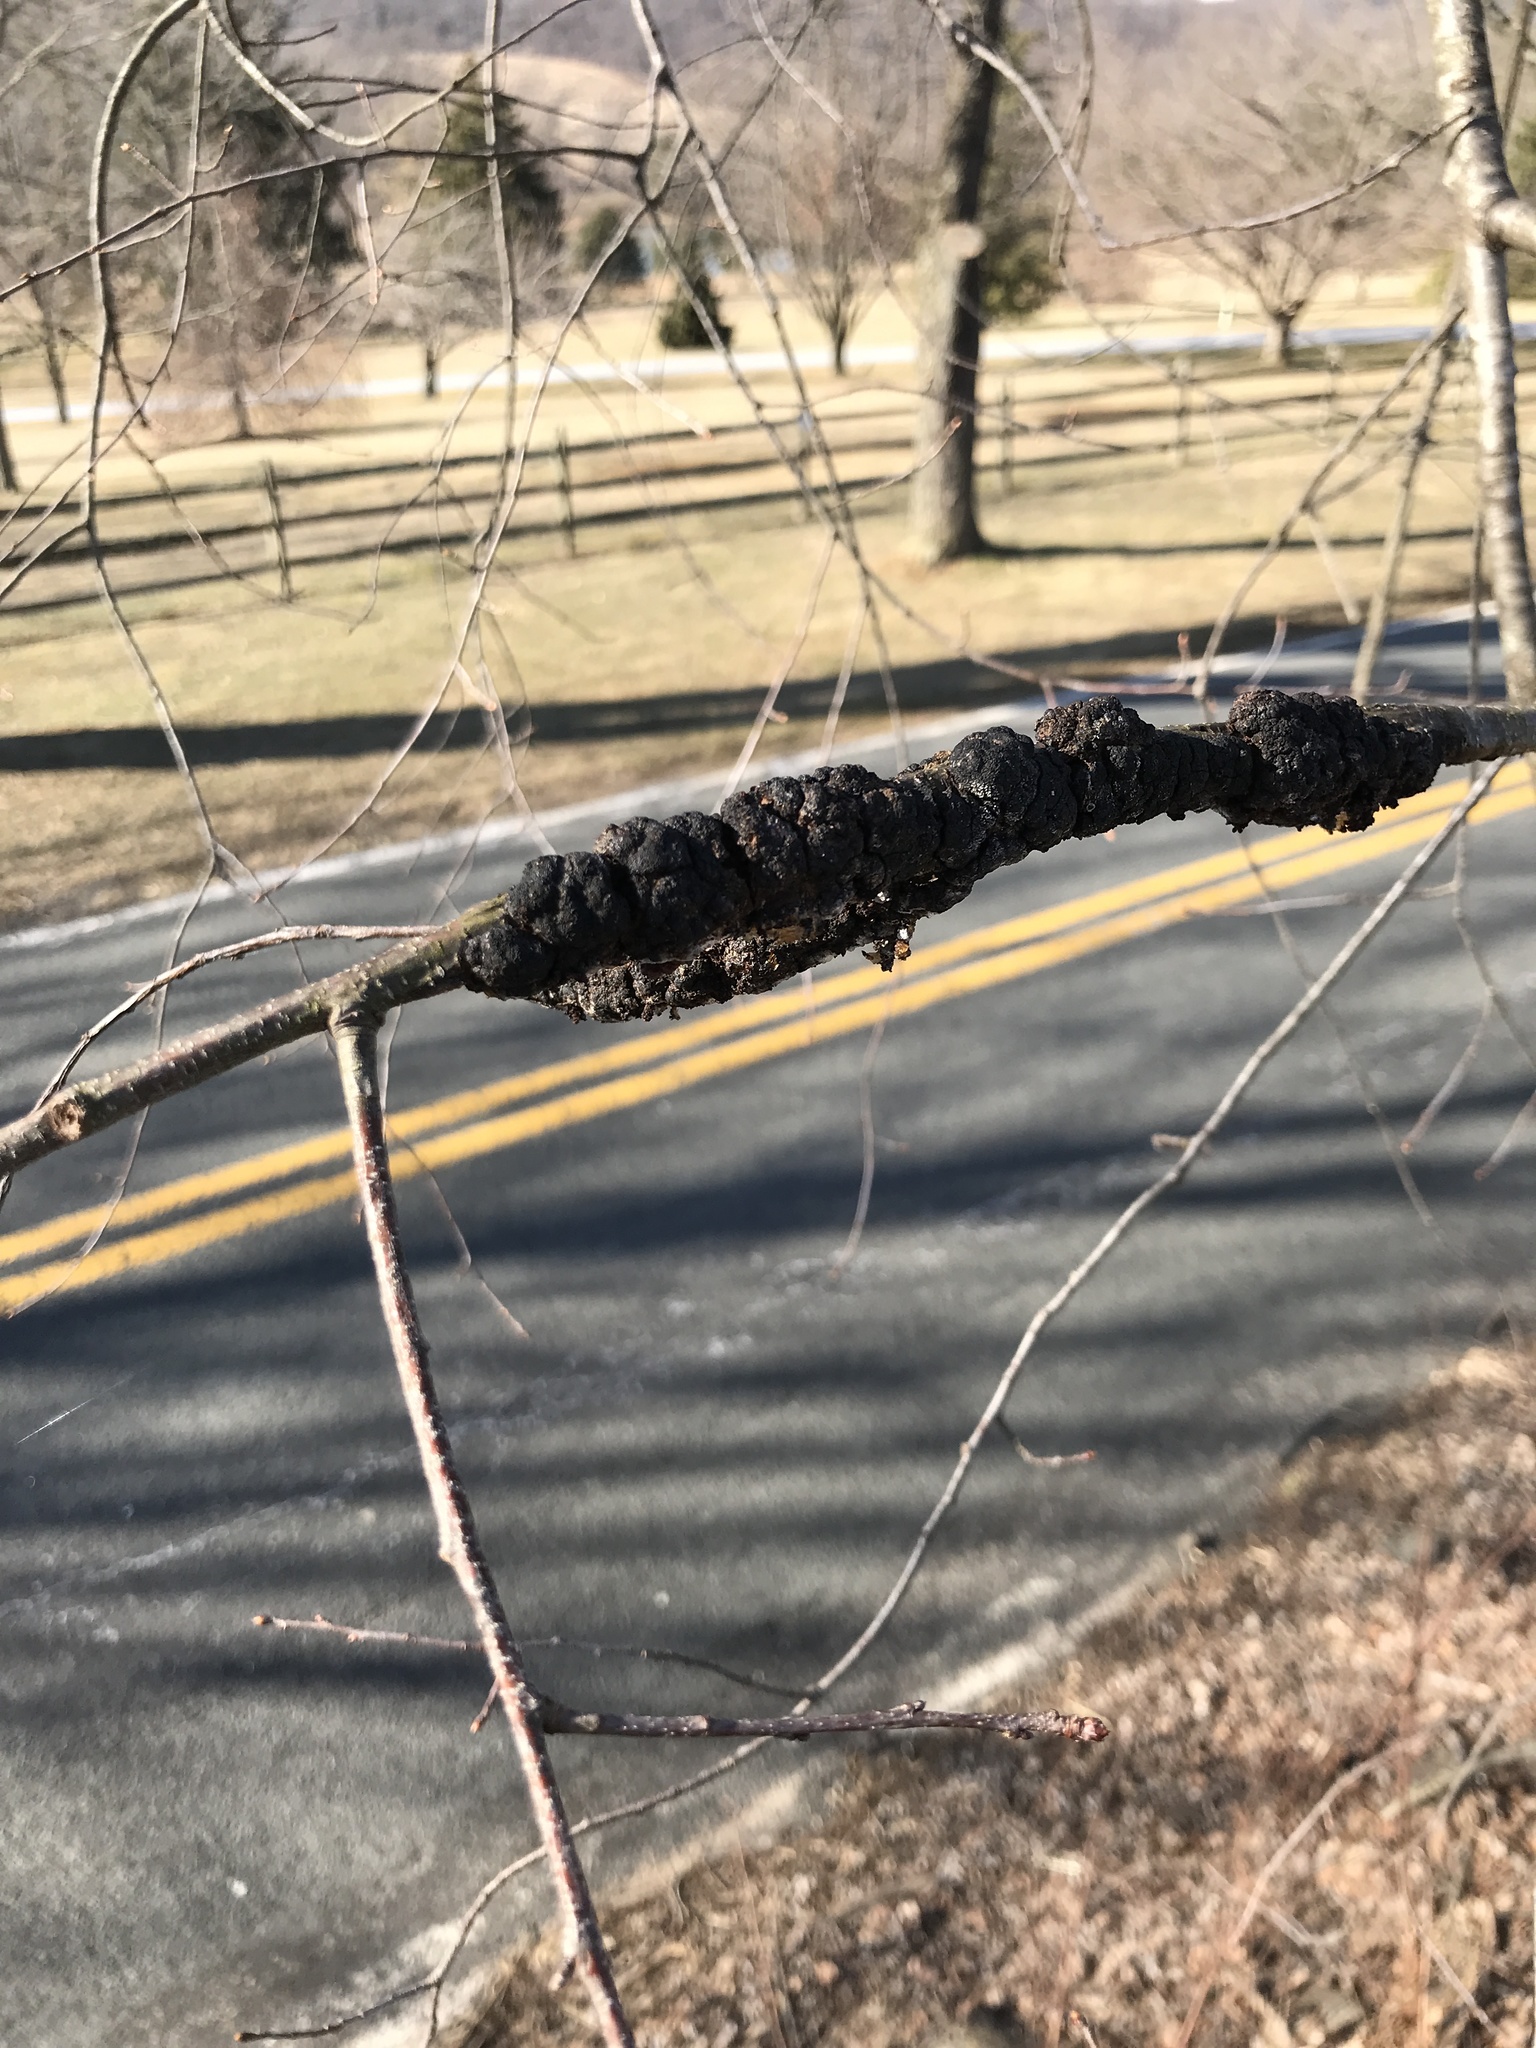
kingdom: Fungi
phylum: Ascomycota
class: Dothideomycetes
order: Venturiales
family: Venturiaceae
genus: Apiosporina
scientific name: Apiosporina morbosa
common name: Black knot
